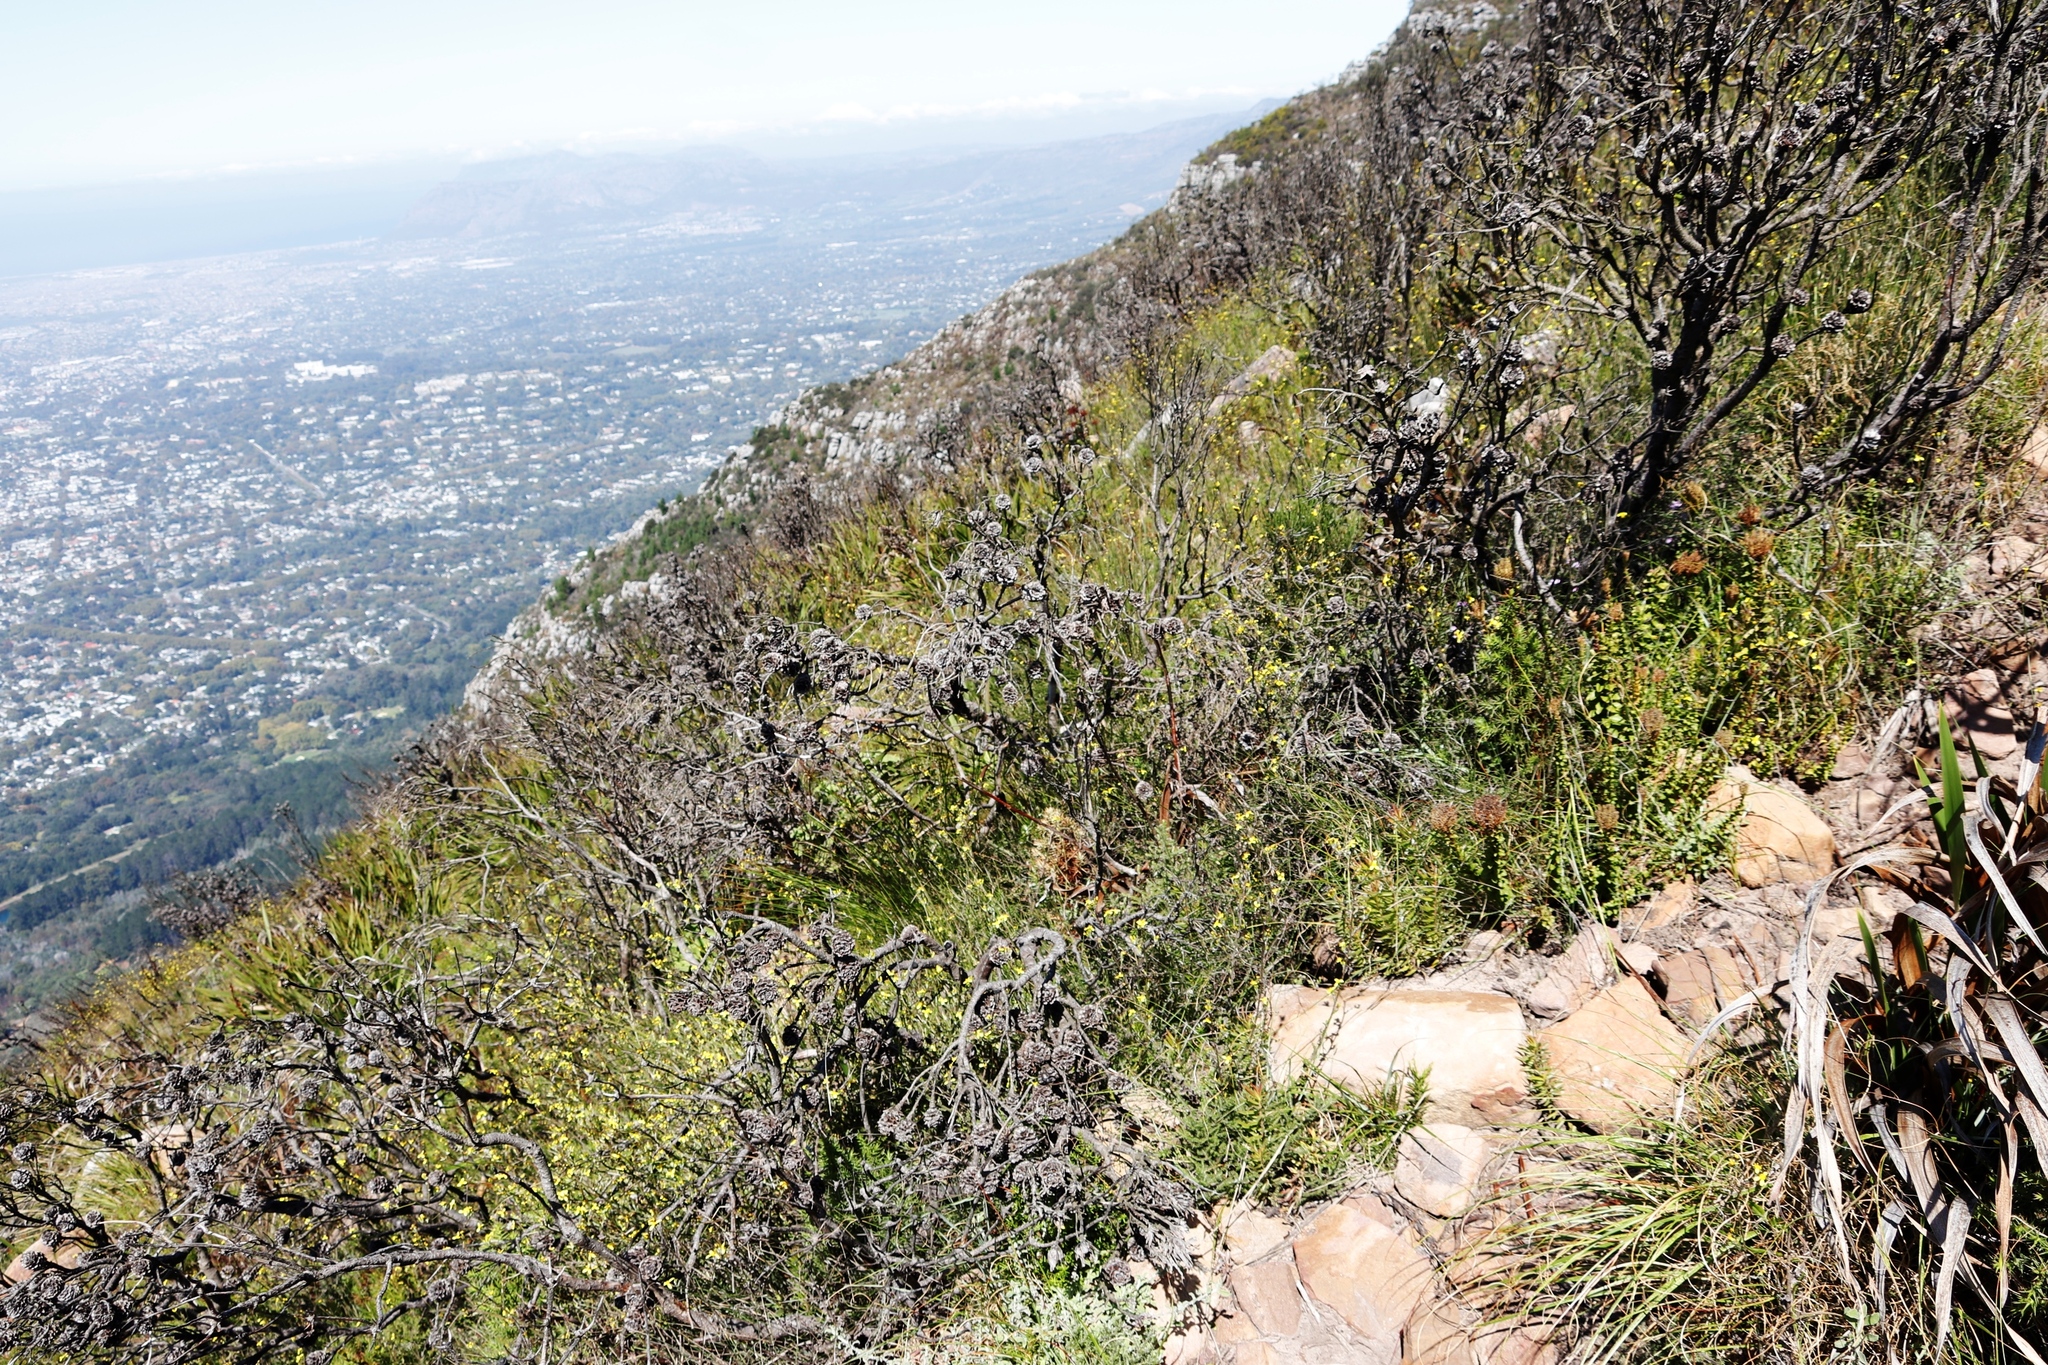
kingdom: Plantae
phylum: Tracheophyta
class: Magnoliopsida
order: Lamiales
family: Scrophulariaceae
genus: Pseudoselago
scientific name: Pseudoselago serrata
